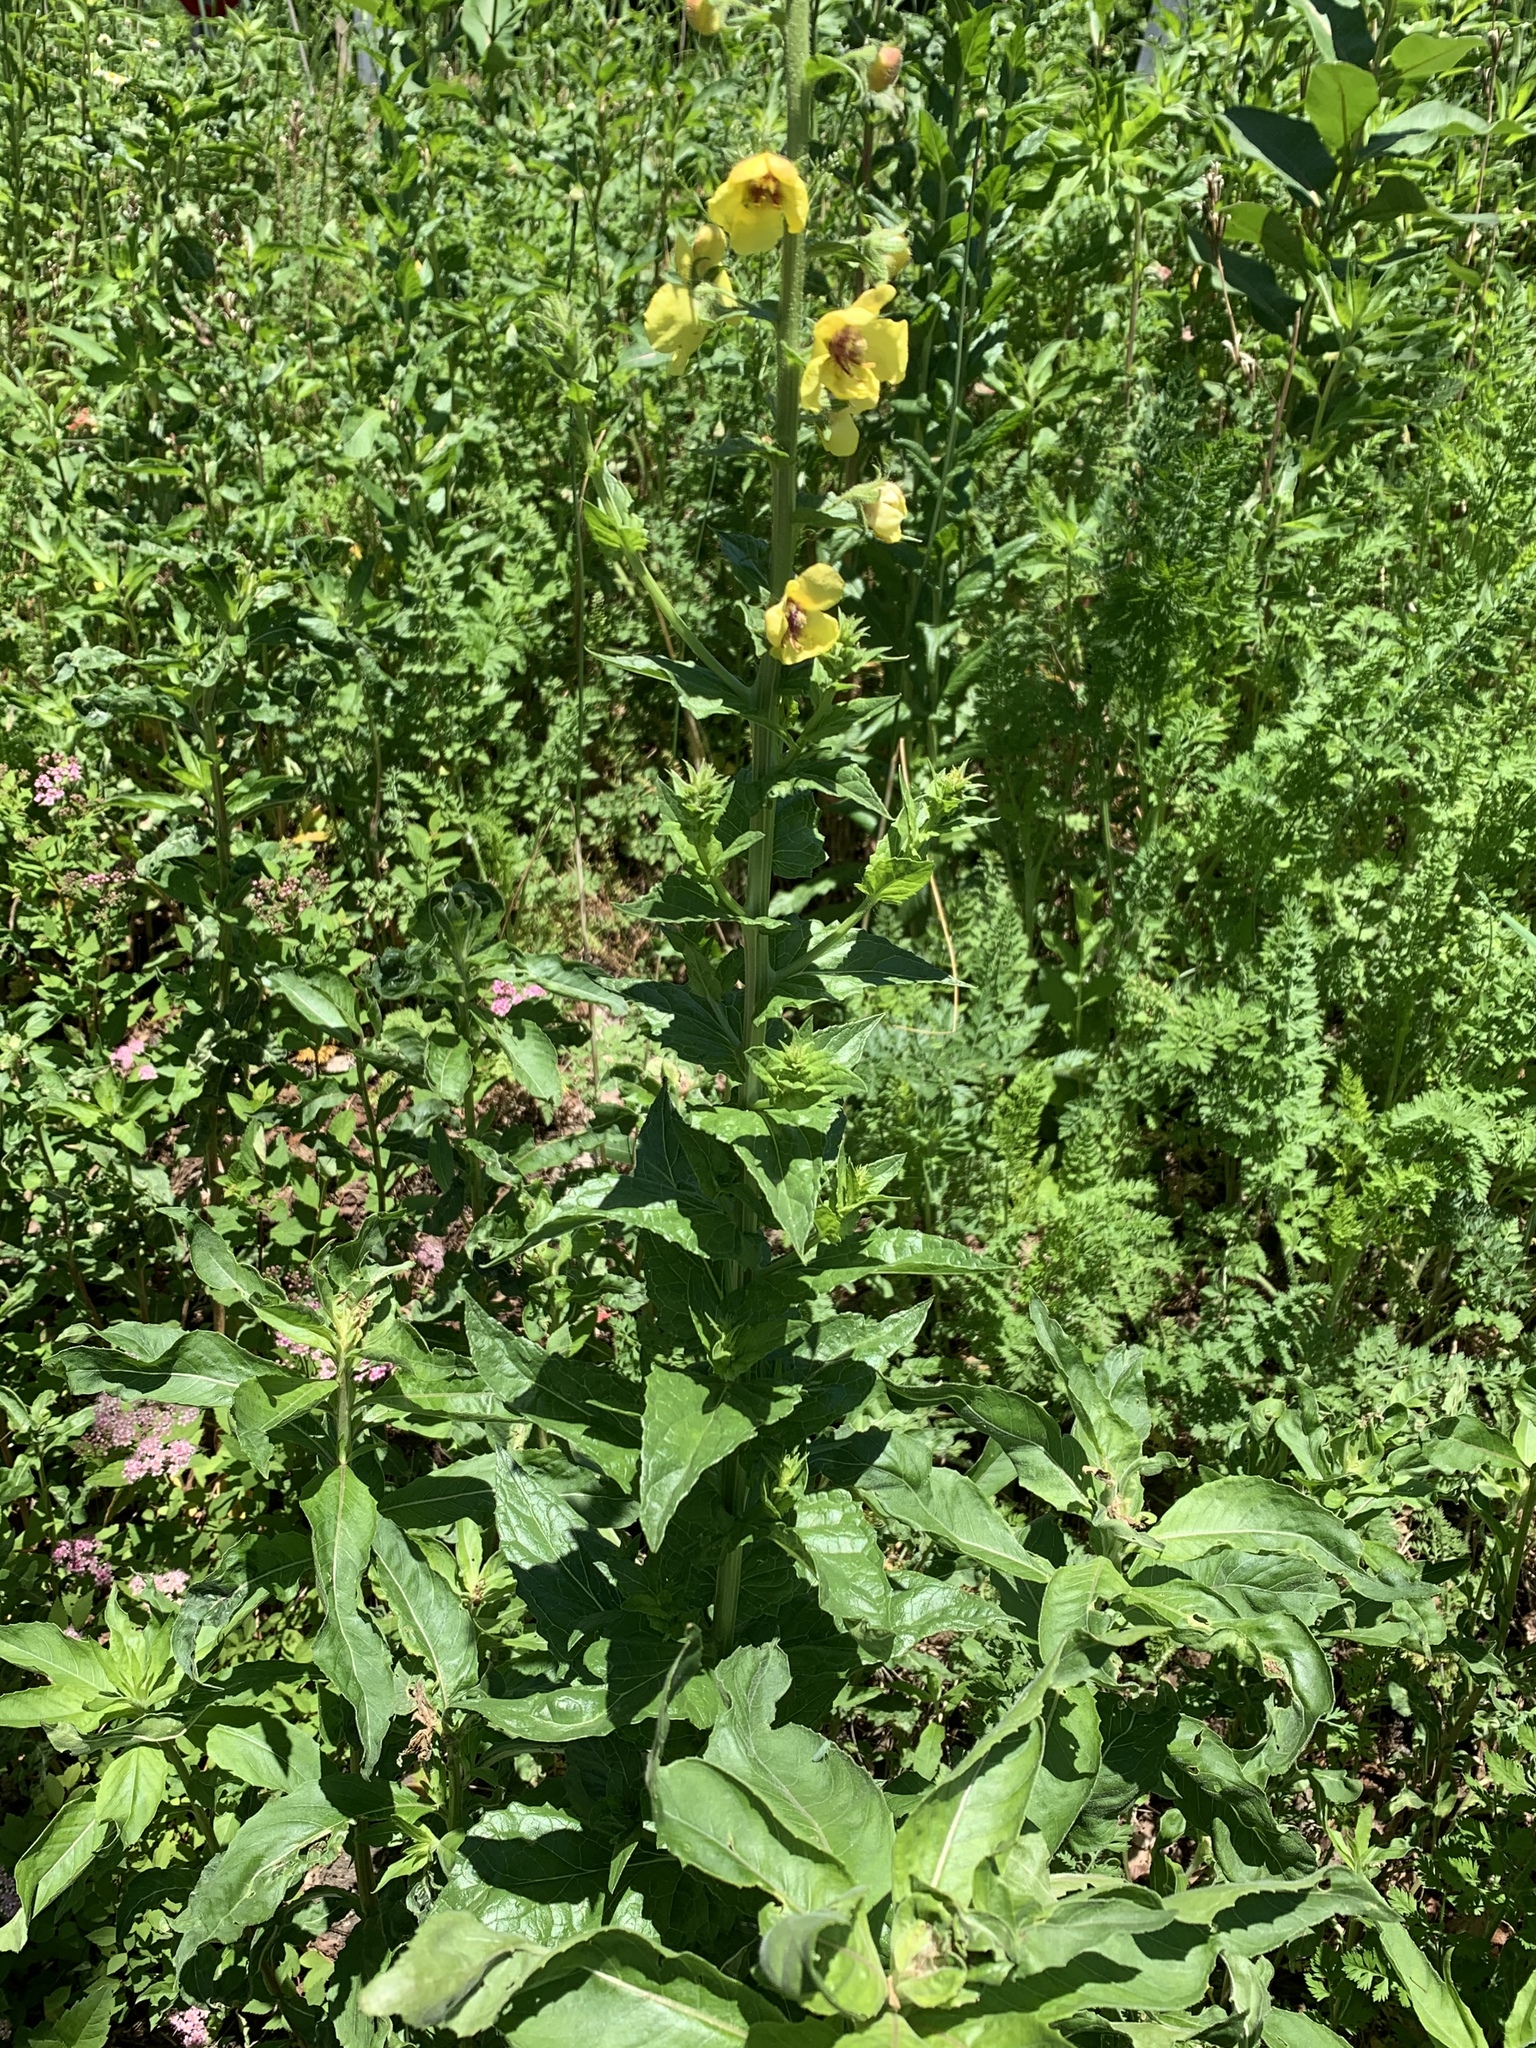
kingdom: Plantae
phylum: Tracheophyta
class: Magnoliopsida
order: Lamiales
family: Scrophulariaceae
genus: Verbascum
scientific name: Verbascum blattaria
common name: Moth mullein
